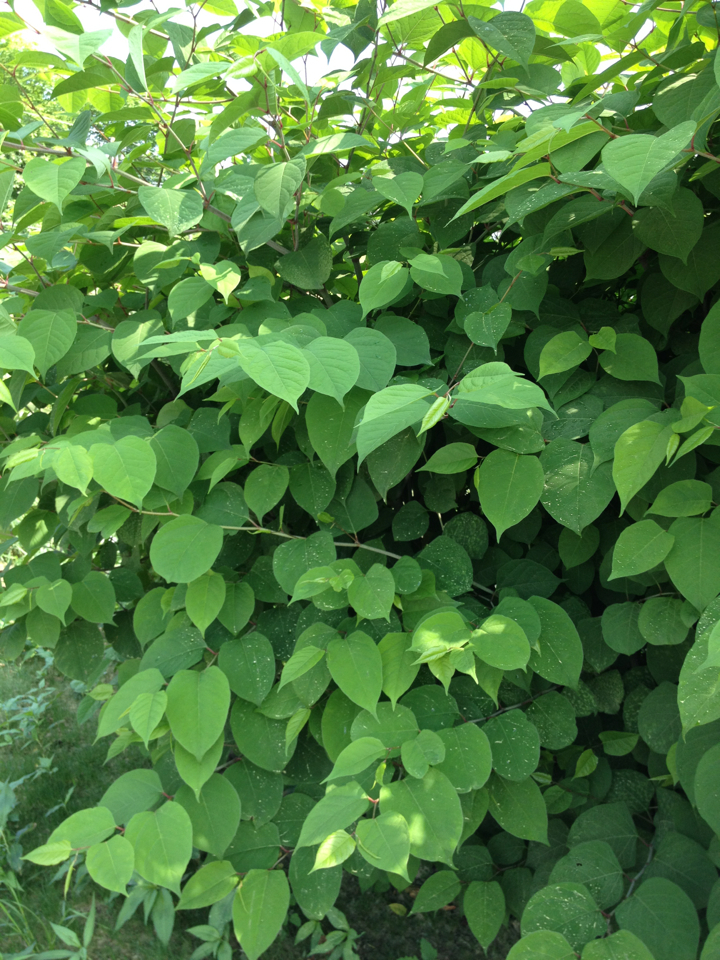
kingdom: Plantae
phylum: Tracheophyta
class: Magnoliopsida
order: Caryophyllales
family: Polygonaceae
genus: Reynoutria
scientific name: Reynoutria japonica
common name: Japanese knotweed
